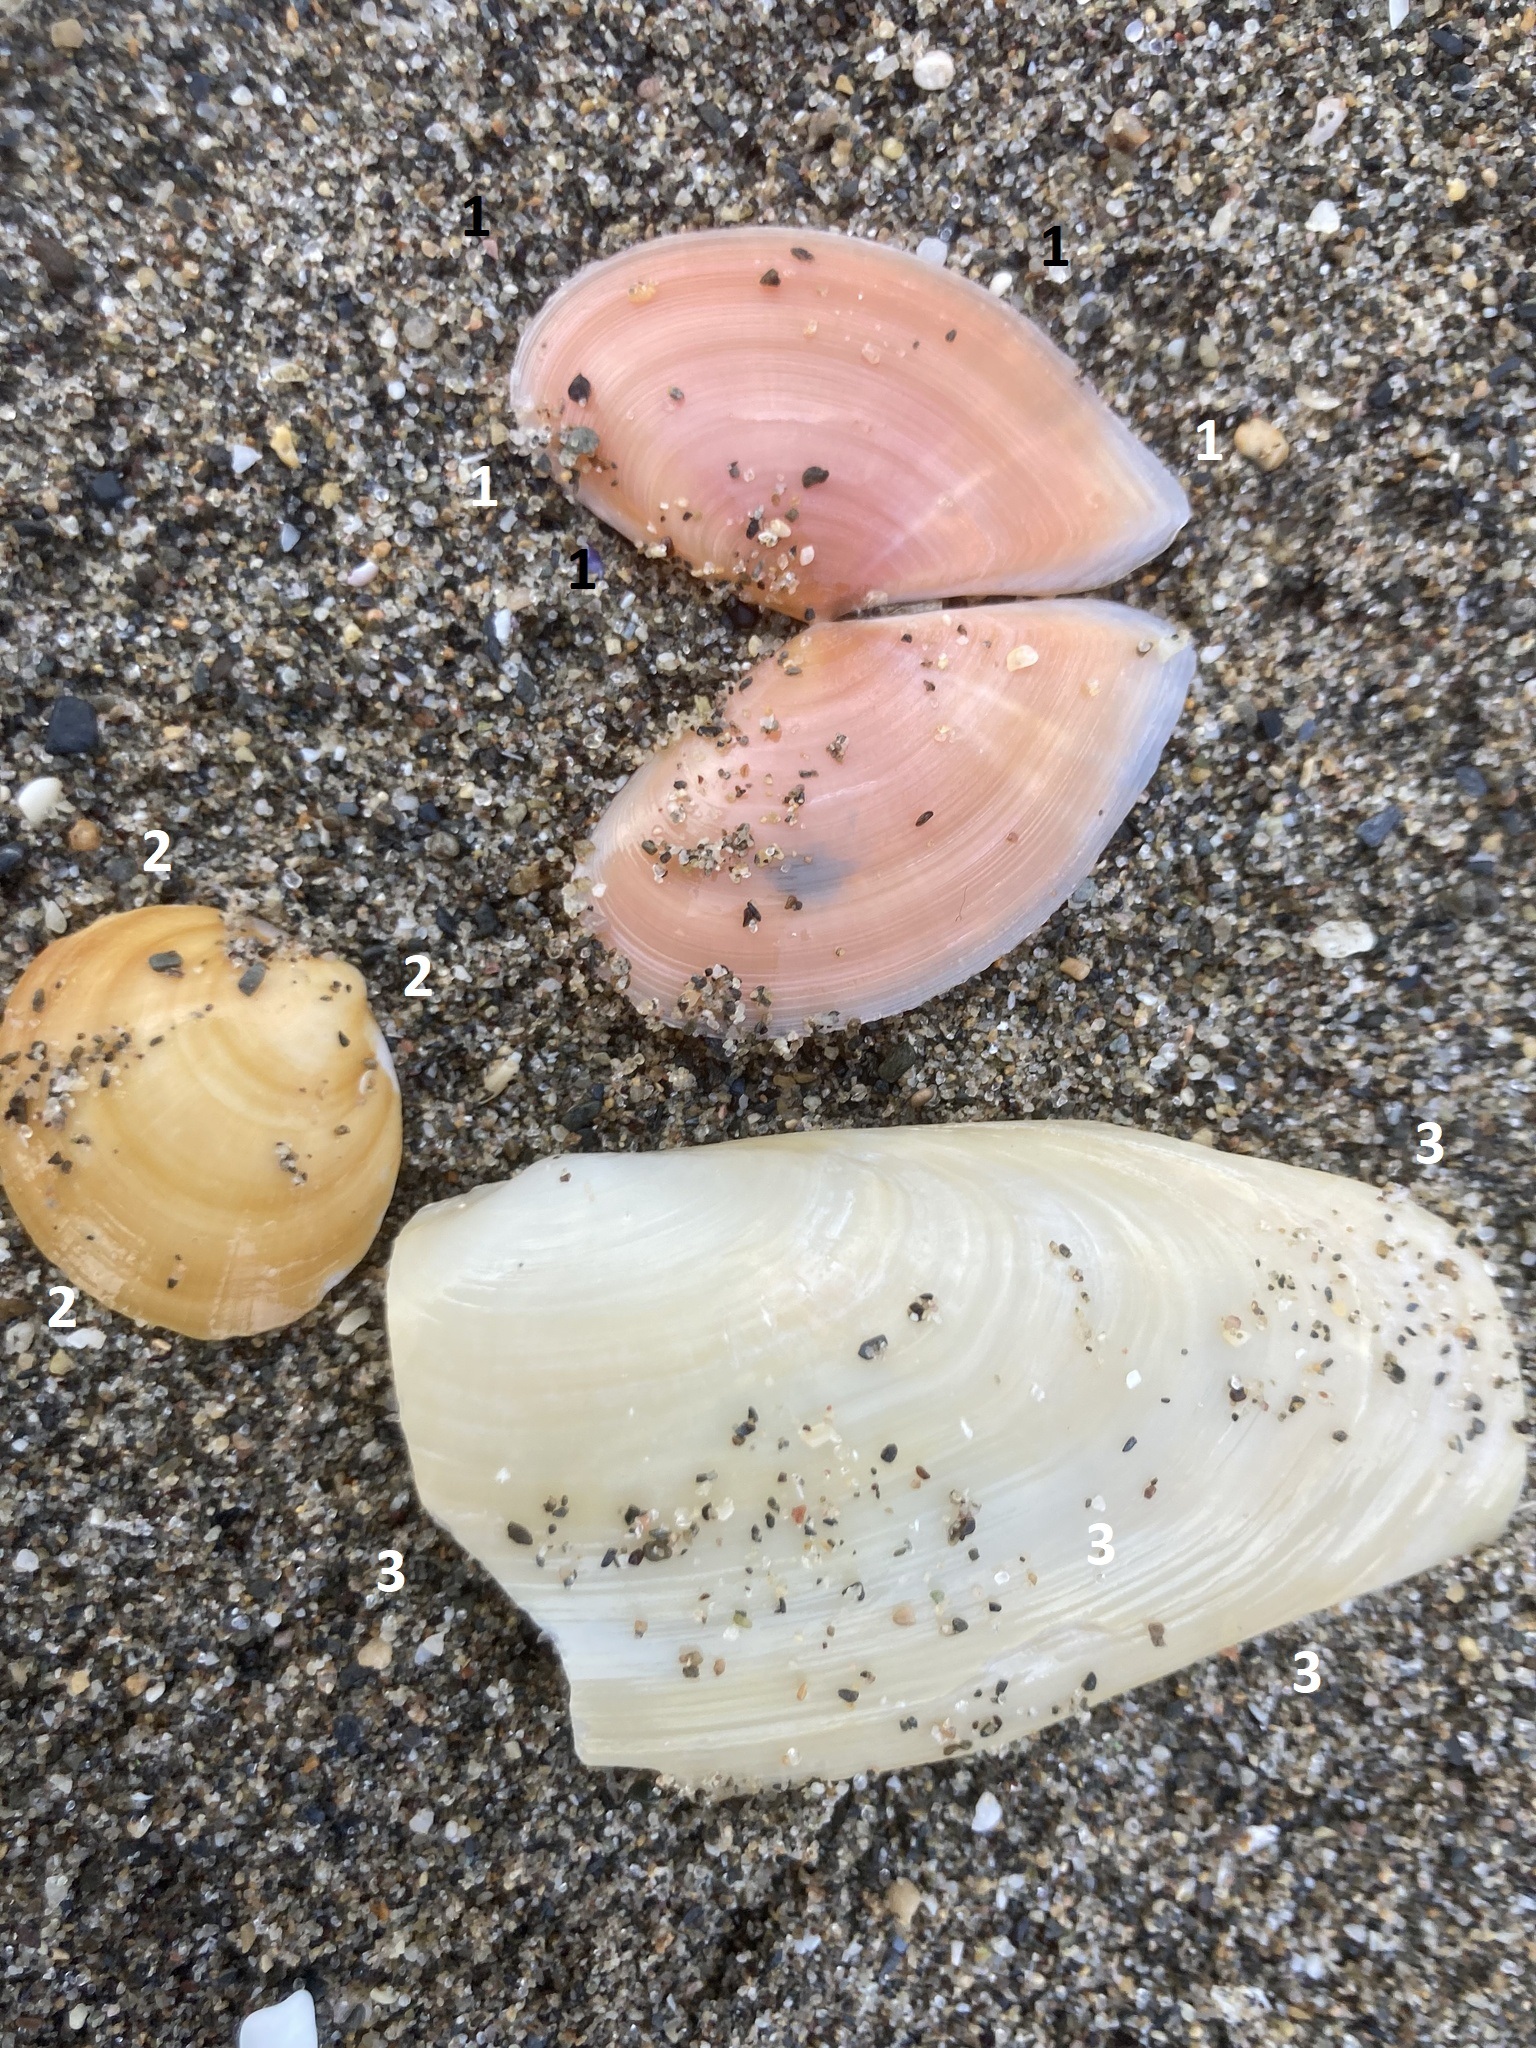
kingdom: Animalia
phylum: Mollusca
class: Bivalvia
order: Cardiida
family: Tellinidae
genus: Bosemprella
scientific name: Bosemprella incarnata
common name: Red tellin
